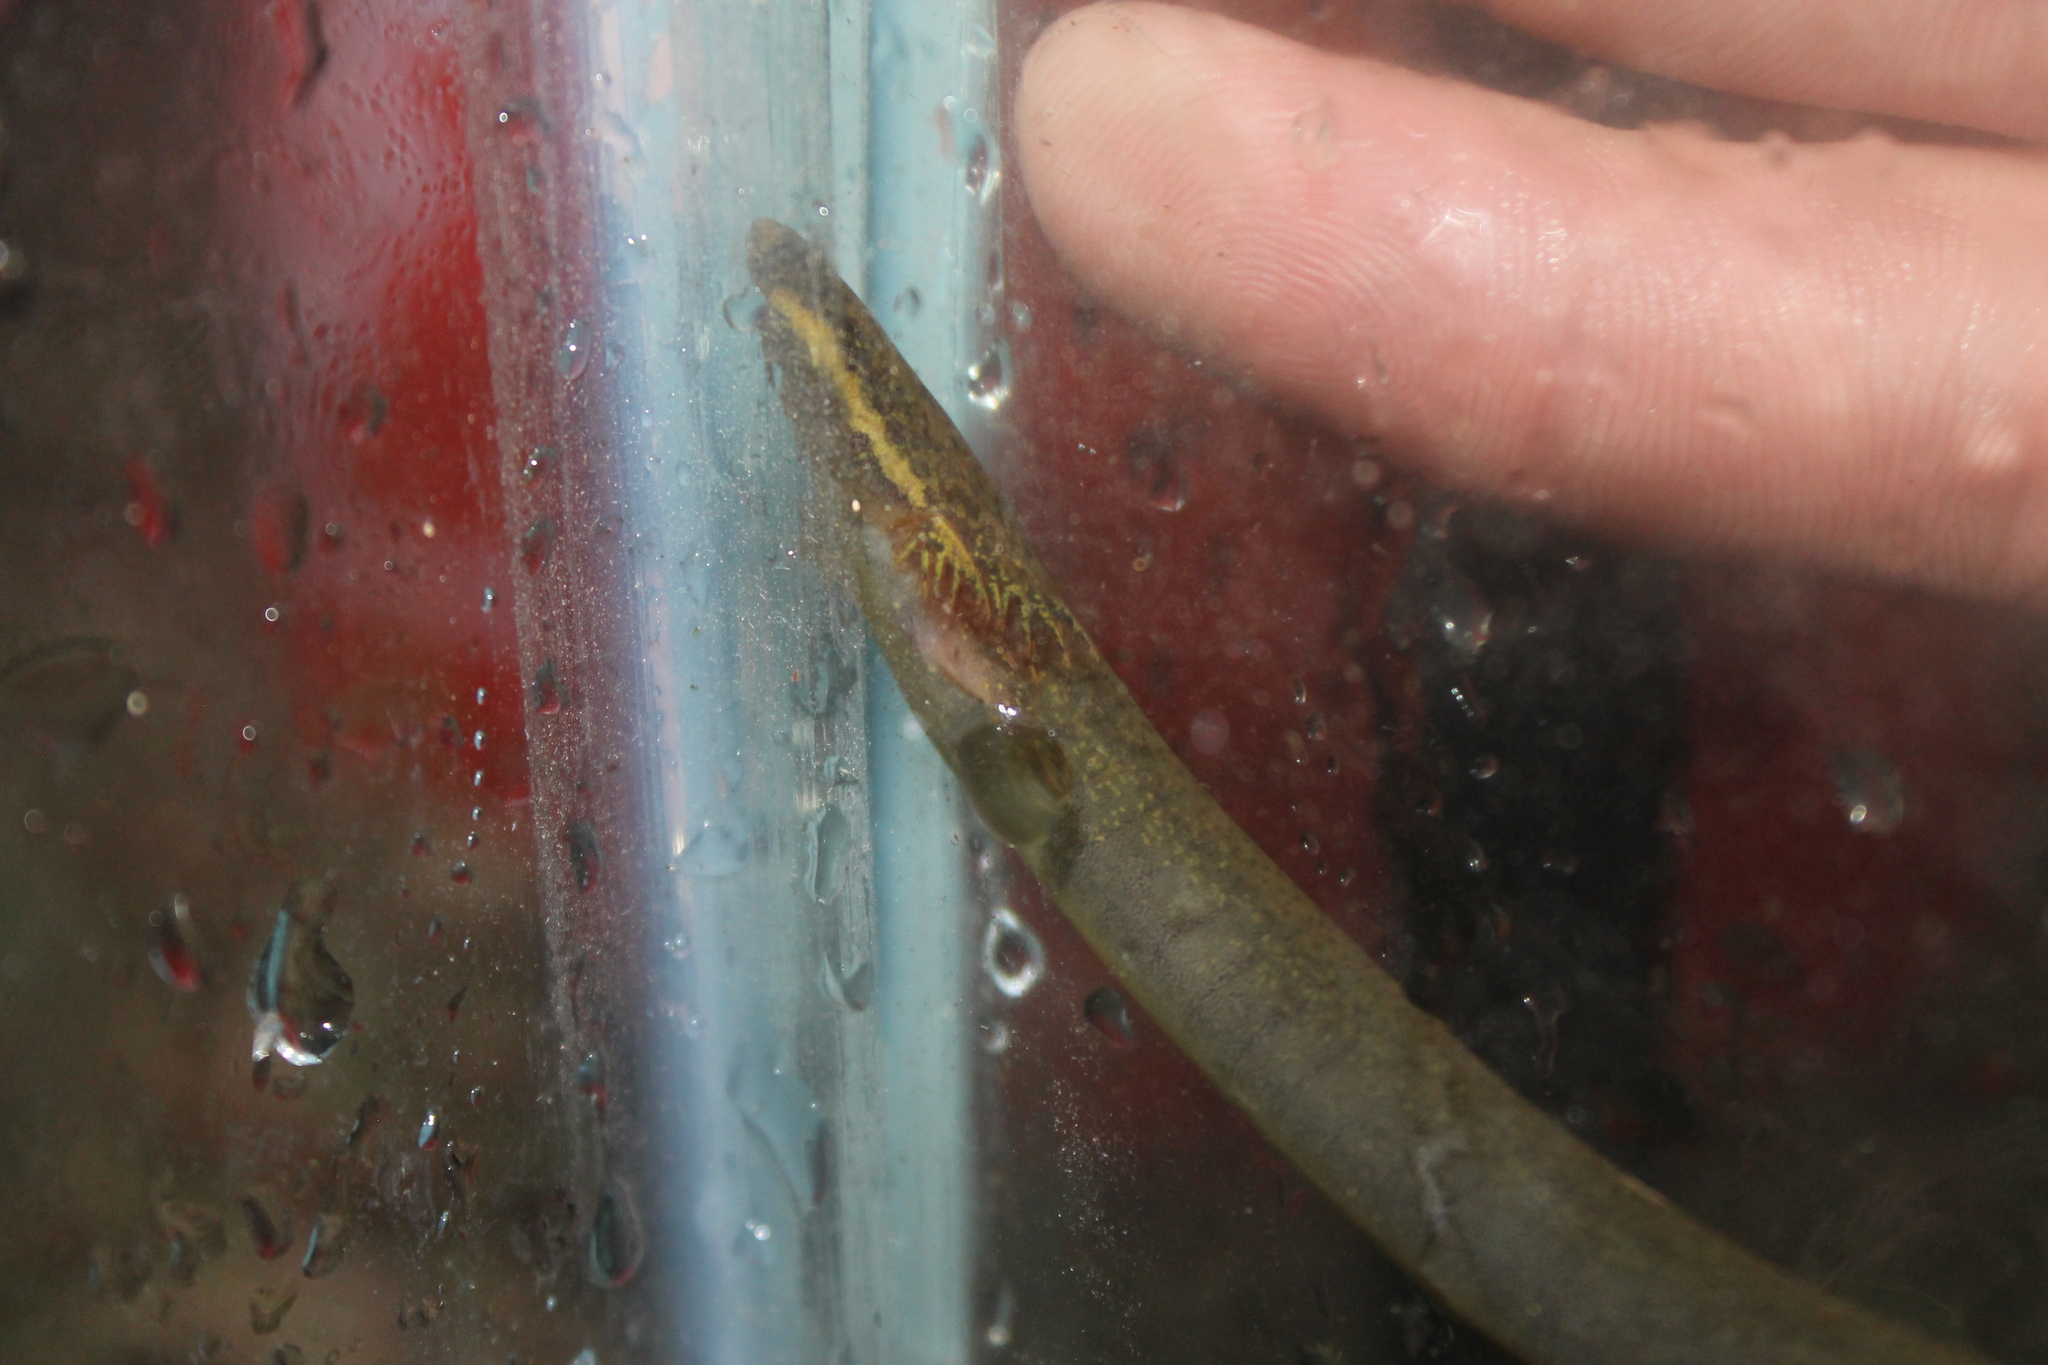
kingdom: Animalia
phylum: Chordata
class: Amphibia
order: Caudata
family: Sirenidae
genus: Siren
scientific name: Siren intermedia
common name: Lesser siren
